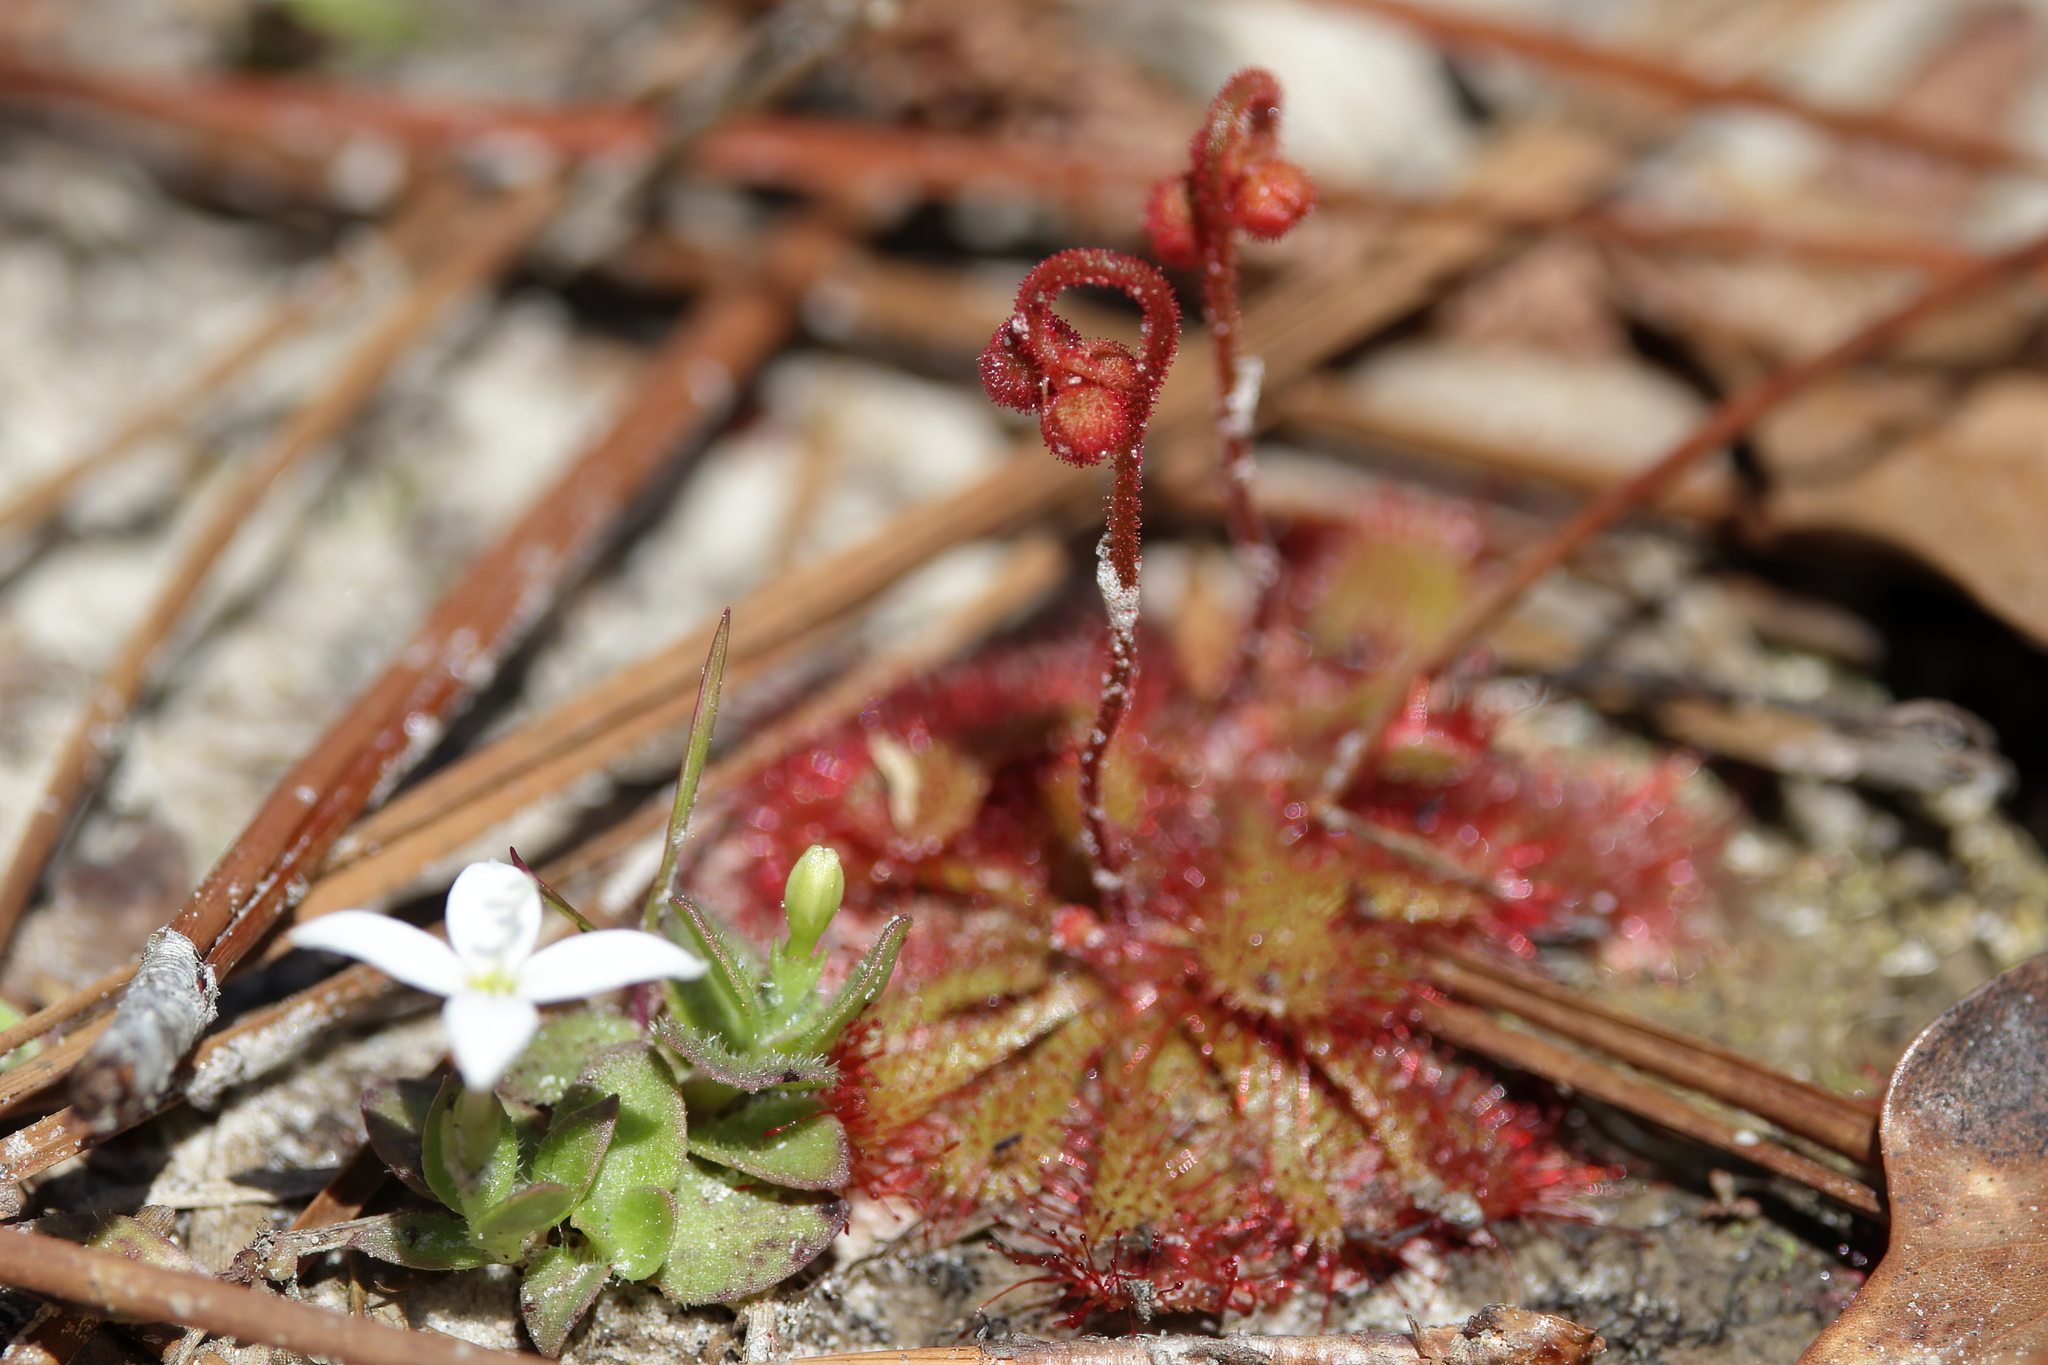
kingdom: Plantae
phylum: Tracheophyta
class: Magnoliopsida
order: Caryophyllales
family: Droseraceae
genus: Drosera
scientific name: Drosera brevifolia
